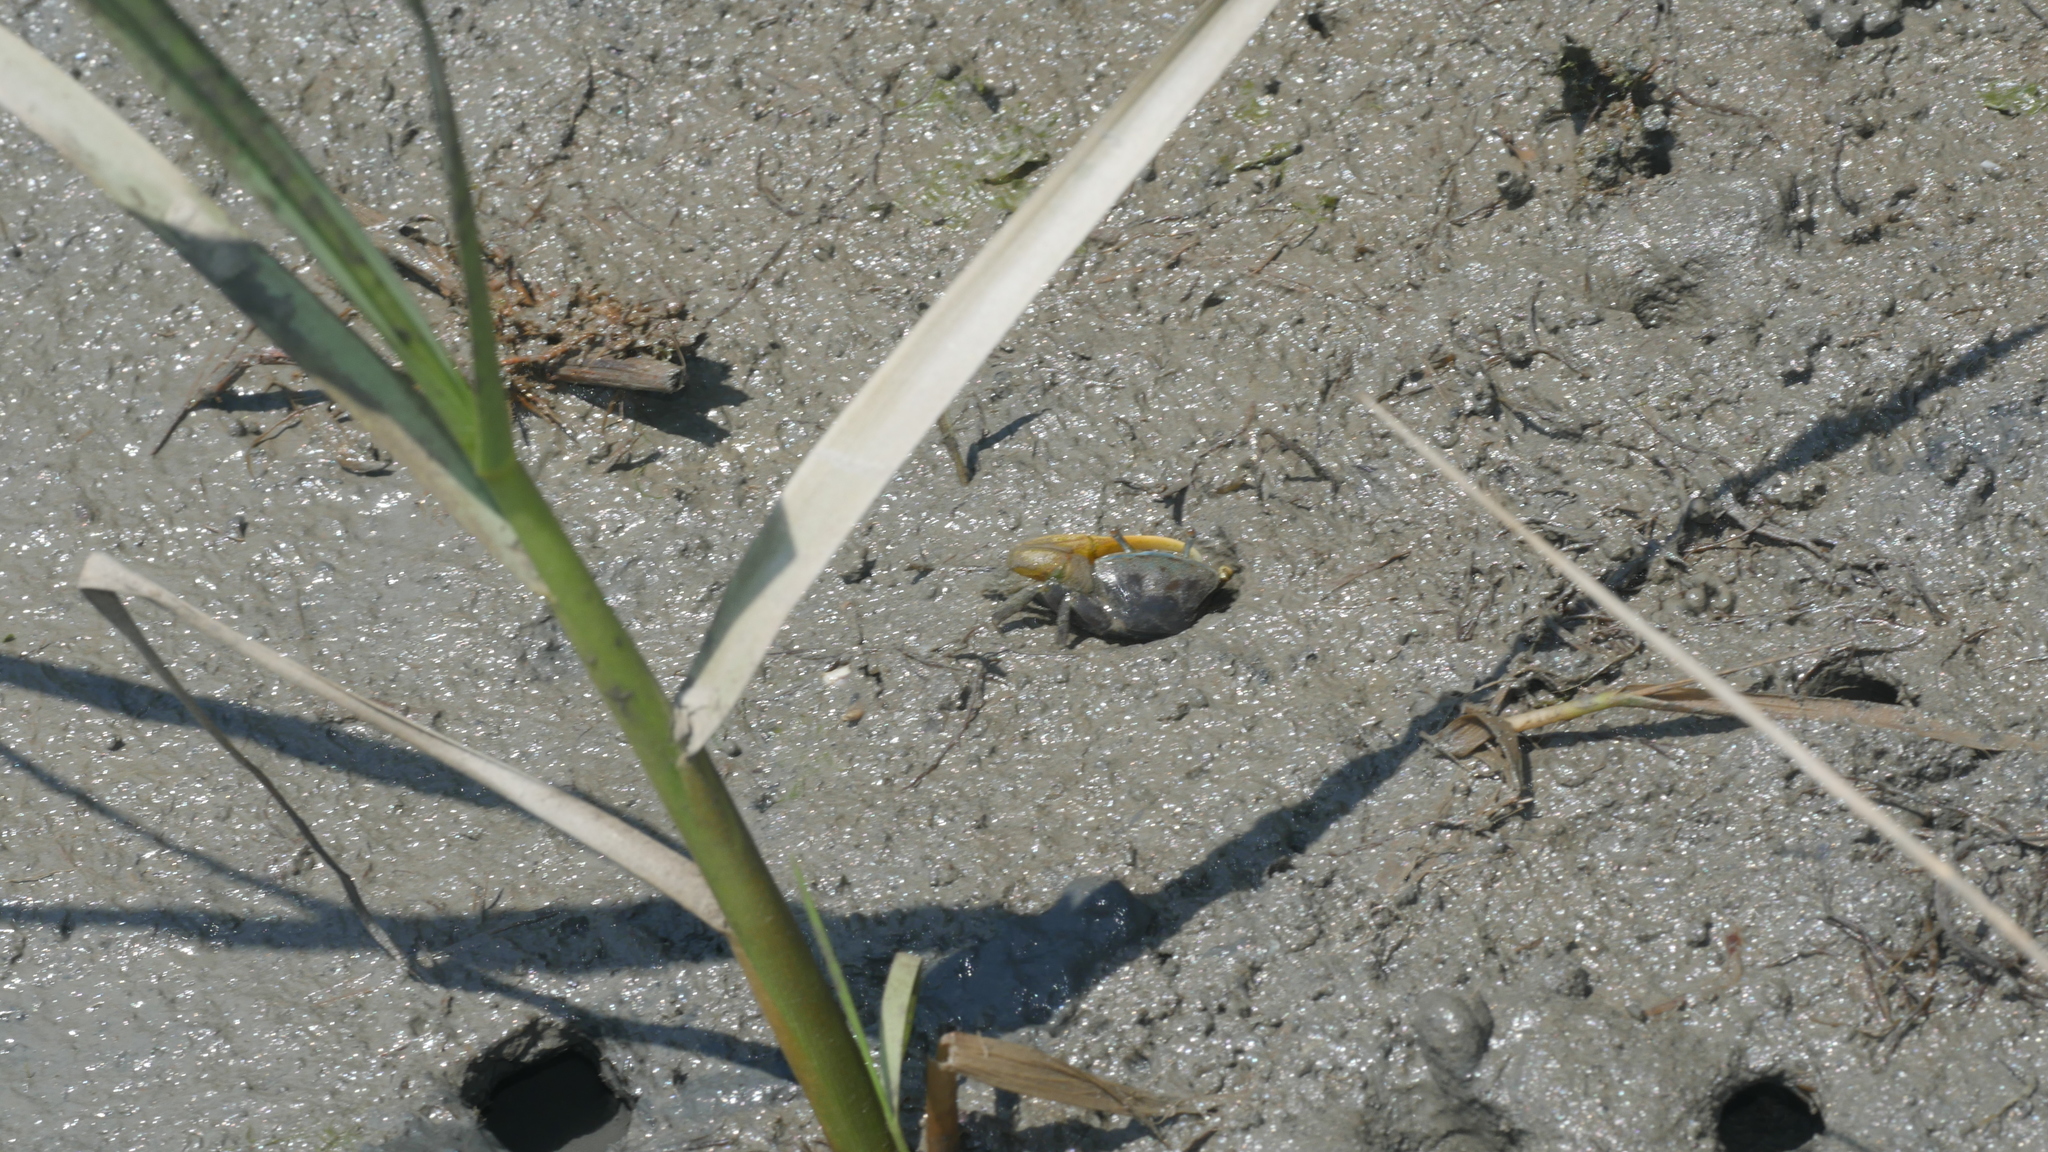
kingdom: Animalia
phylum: Arthropoda
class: Malacostraca
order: Decapoda
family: Ocypodidae
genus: Minuca
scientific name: Minuca pugnax
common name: Mud fiddler crab
